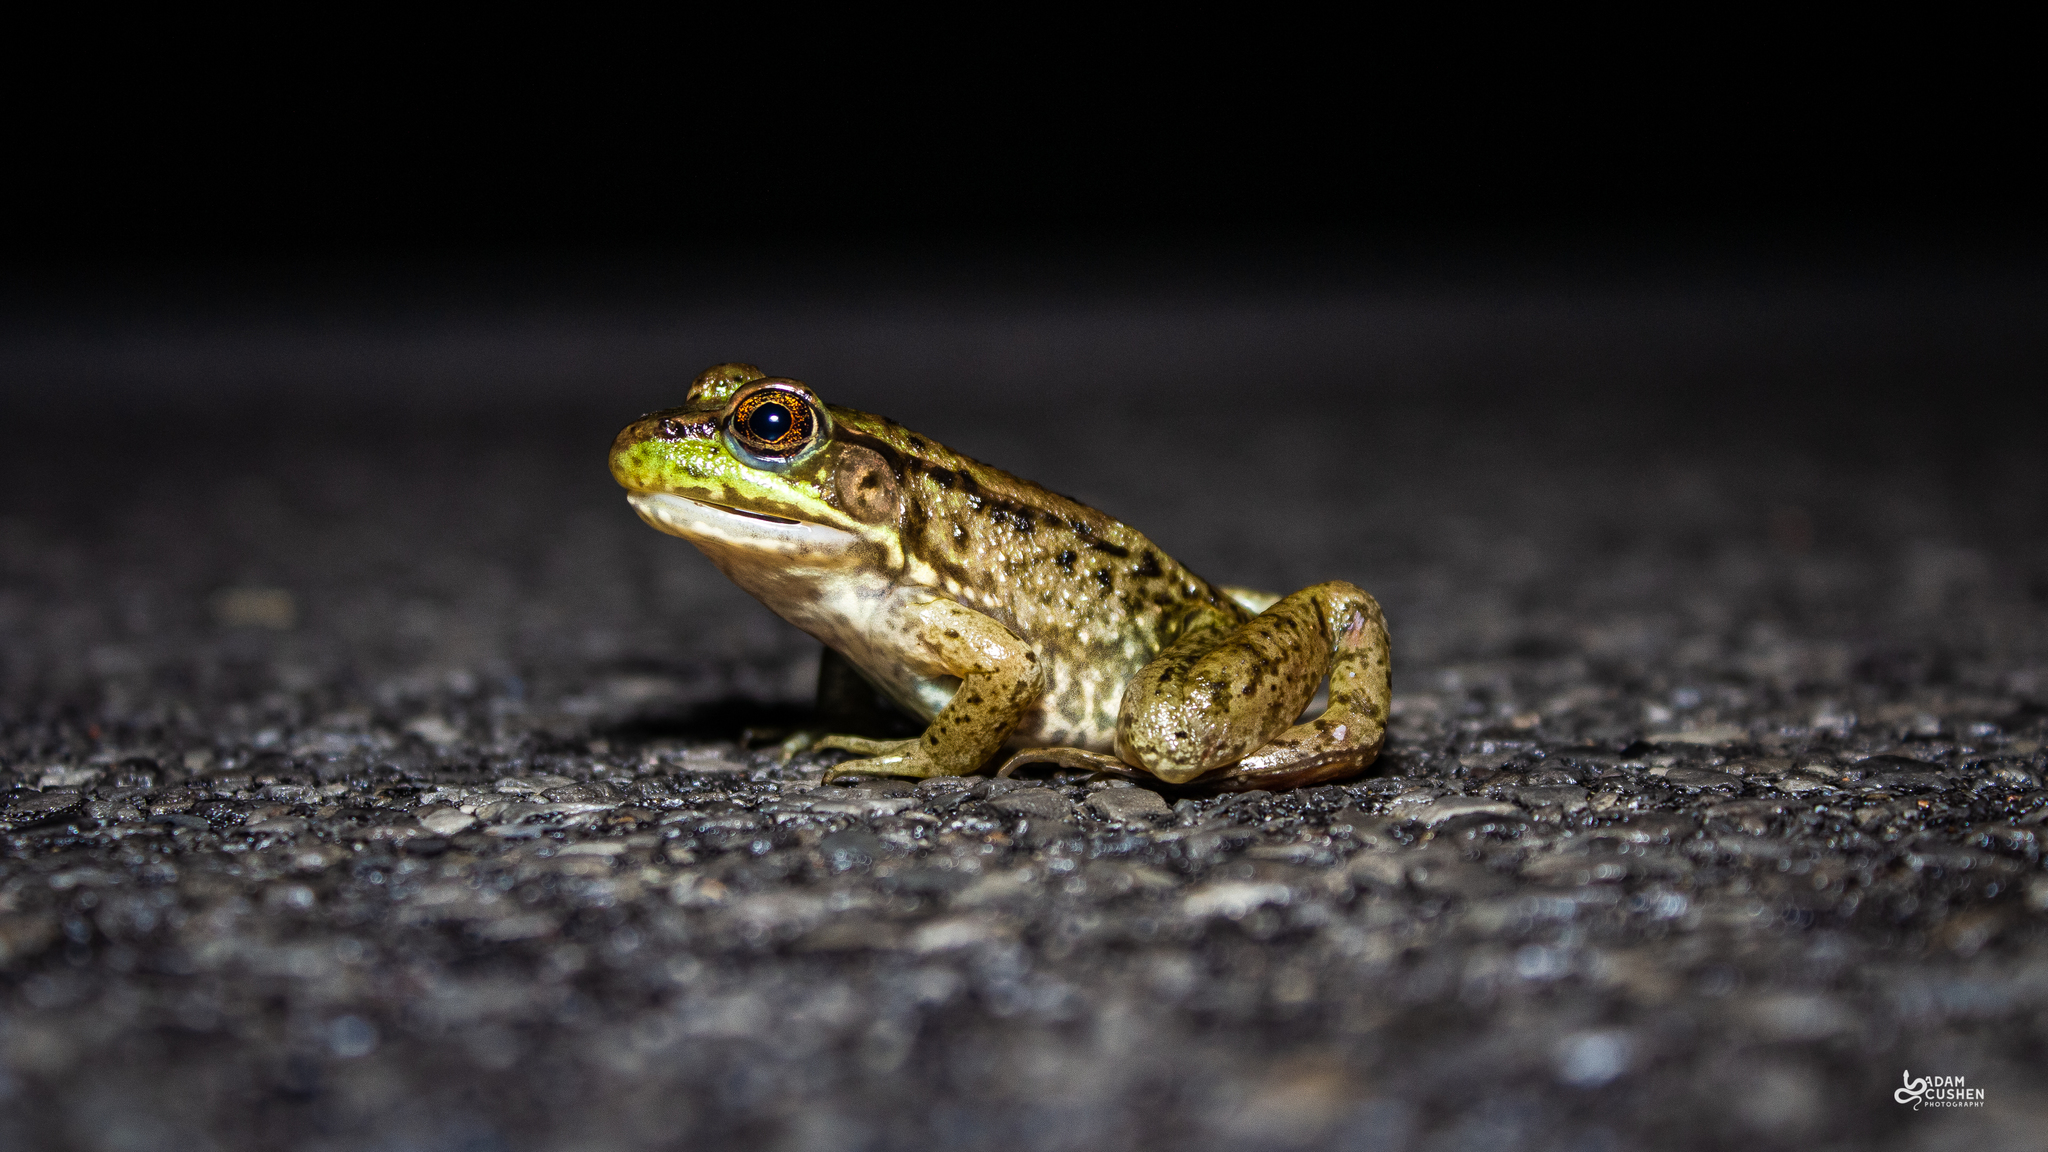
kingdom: Animalia
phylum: Chordata
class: Amphibia
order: Anura
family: Ranidae
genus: Lithobates
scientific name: Lithobates clamitans
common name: Green frog
